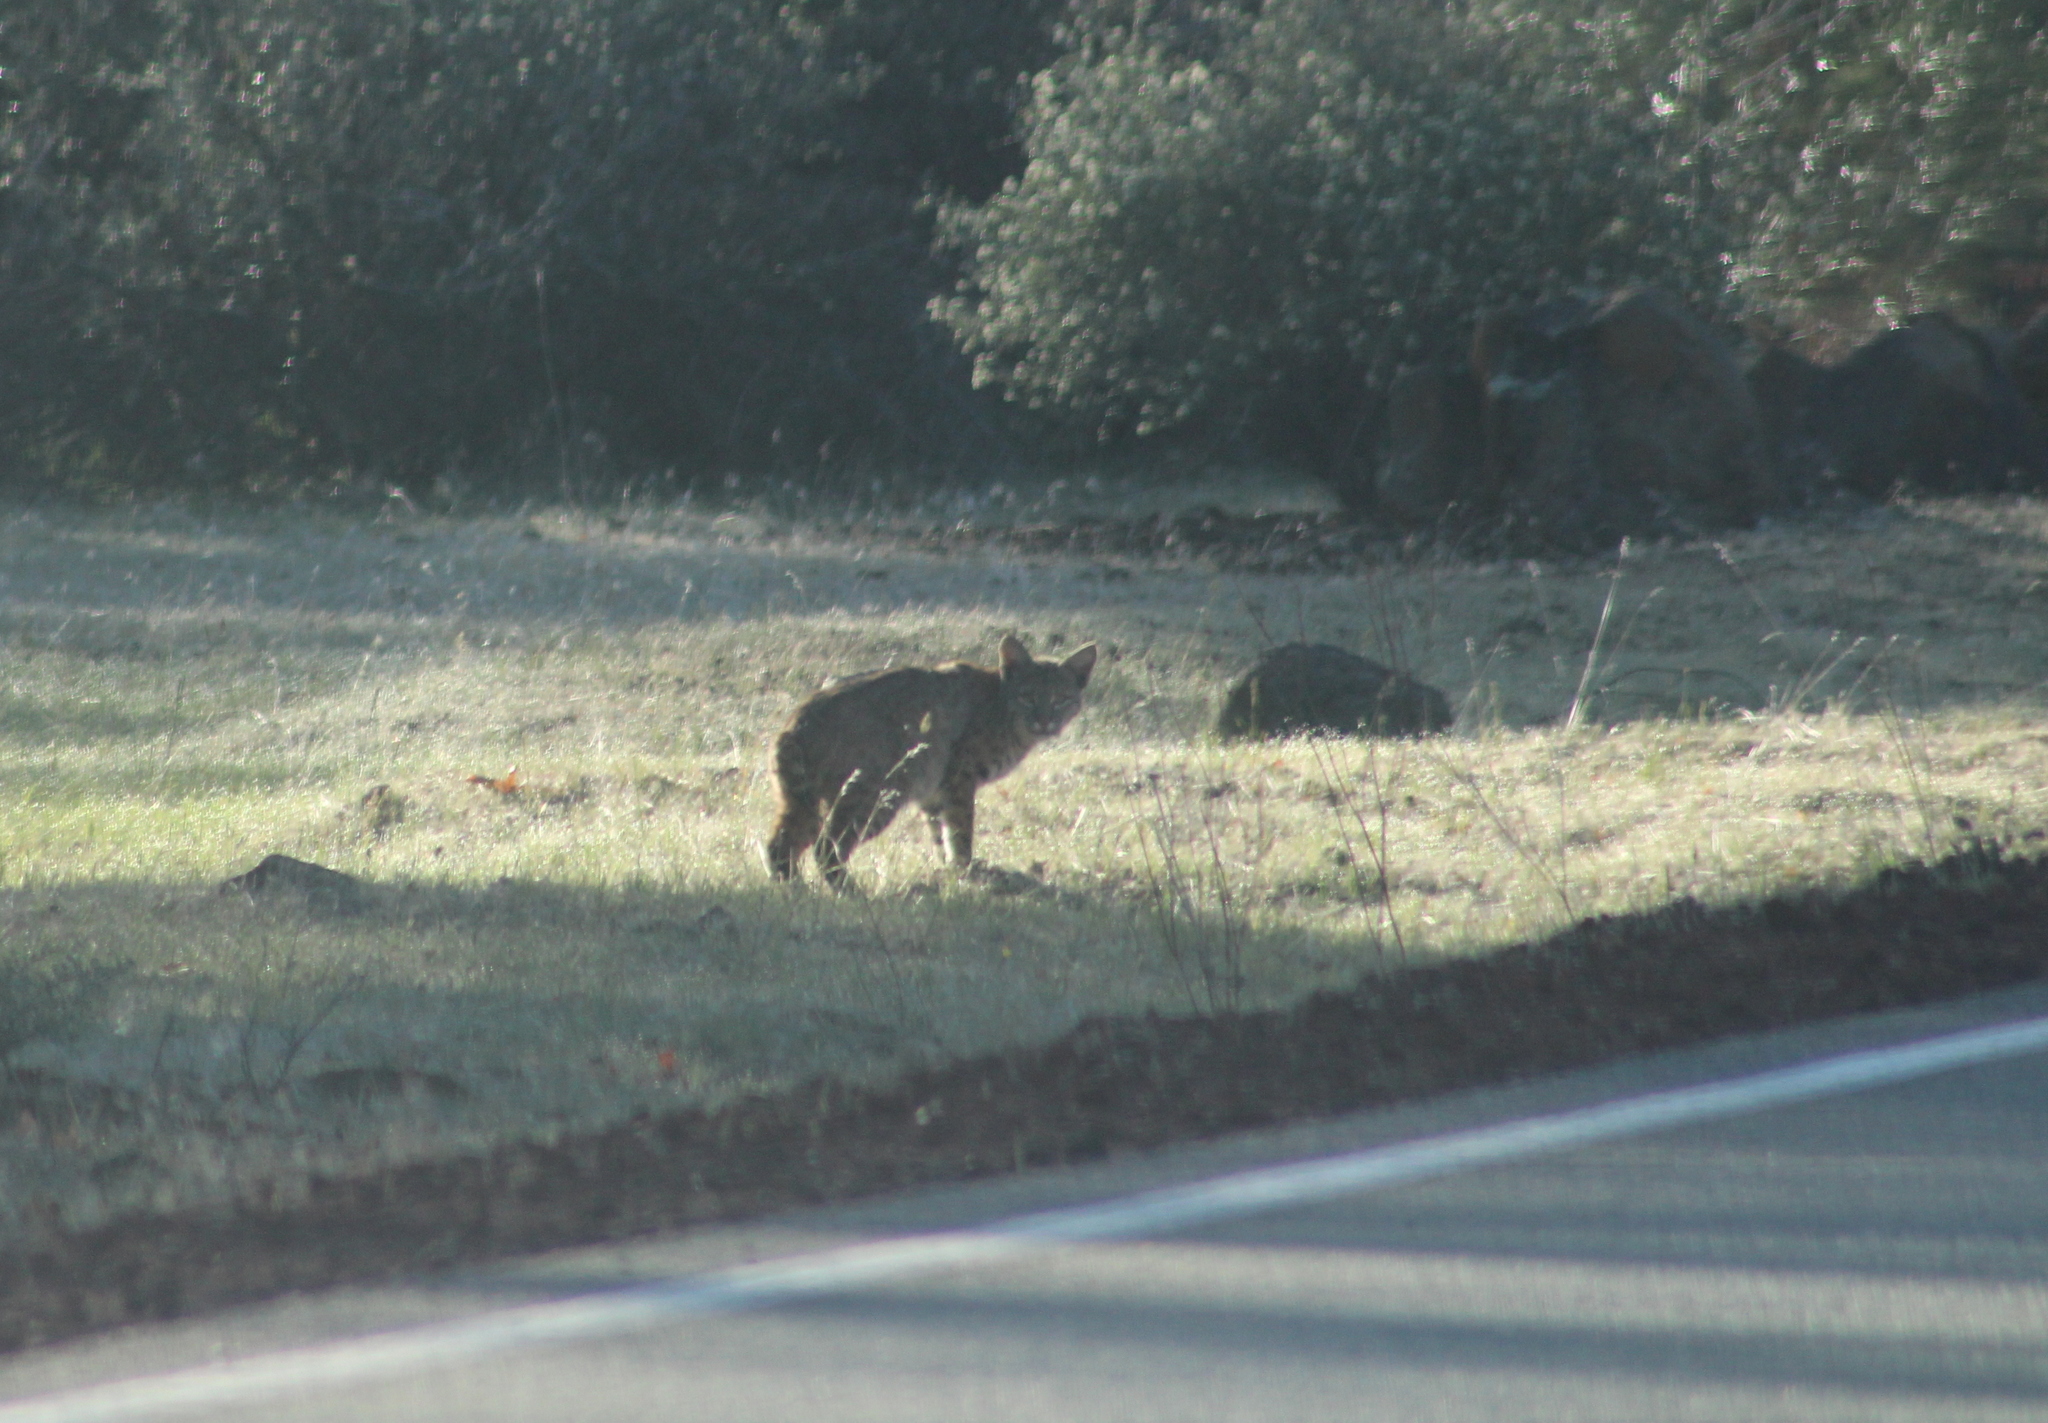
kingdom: Animalia
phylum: Chordata
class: Mammalia
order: Carnivora
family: Felidae
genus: Lynx
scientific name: Lynx rufus
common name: Bobcat
